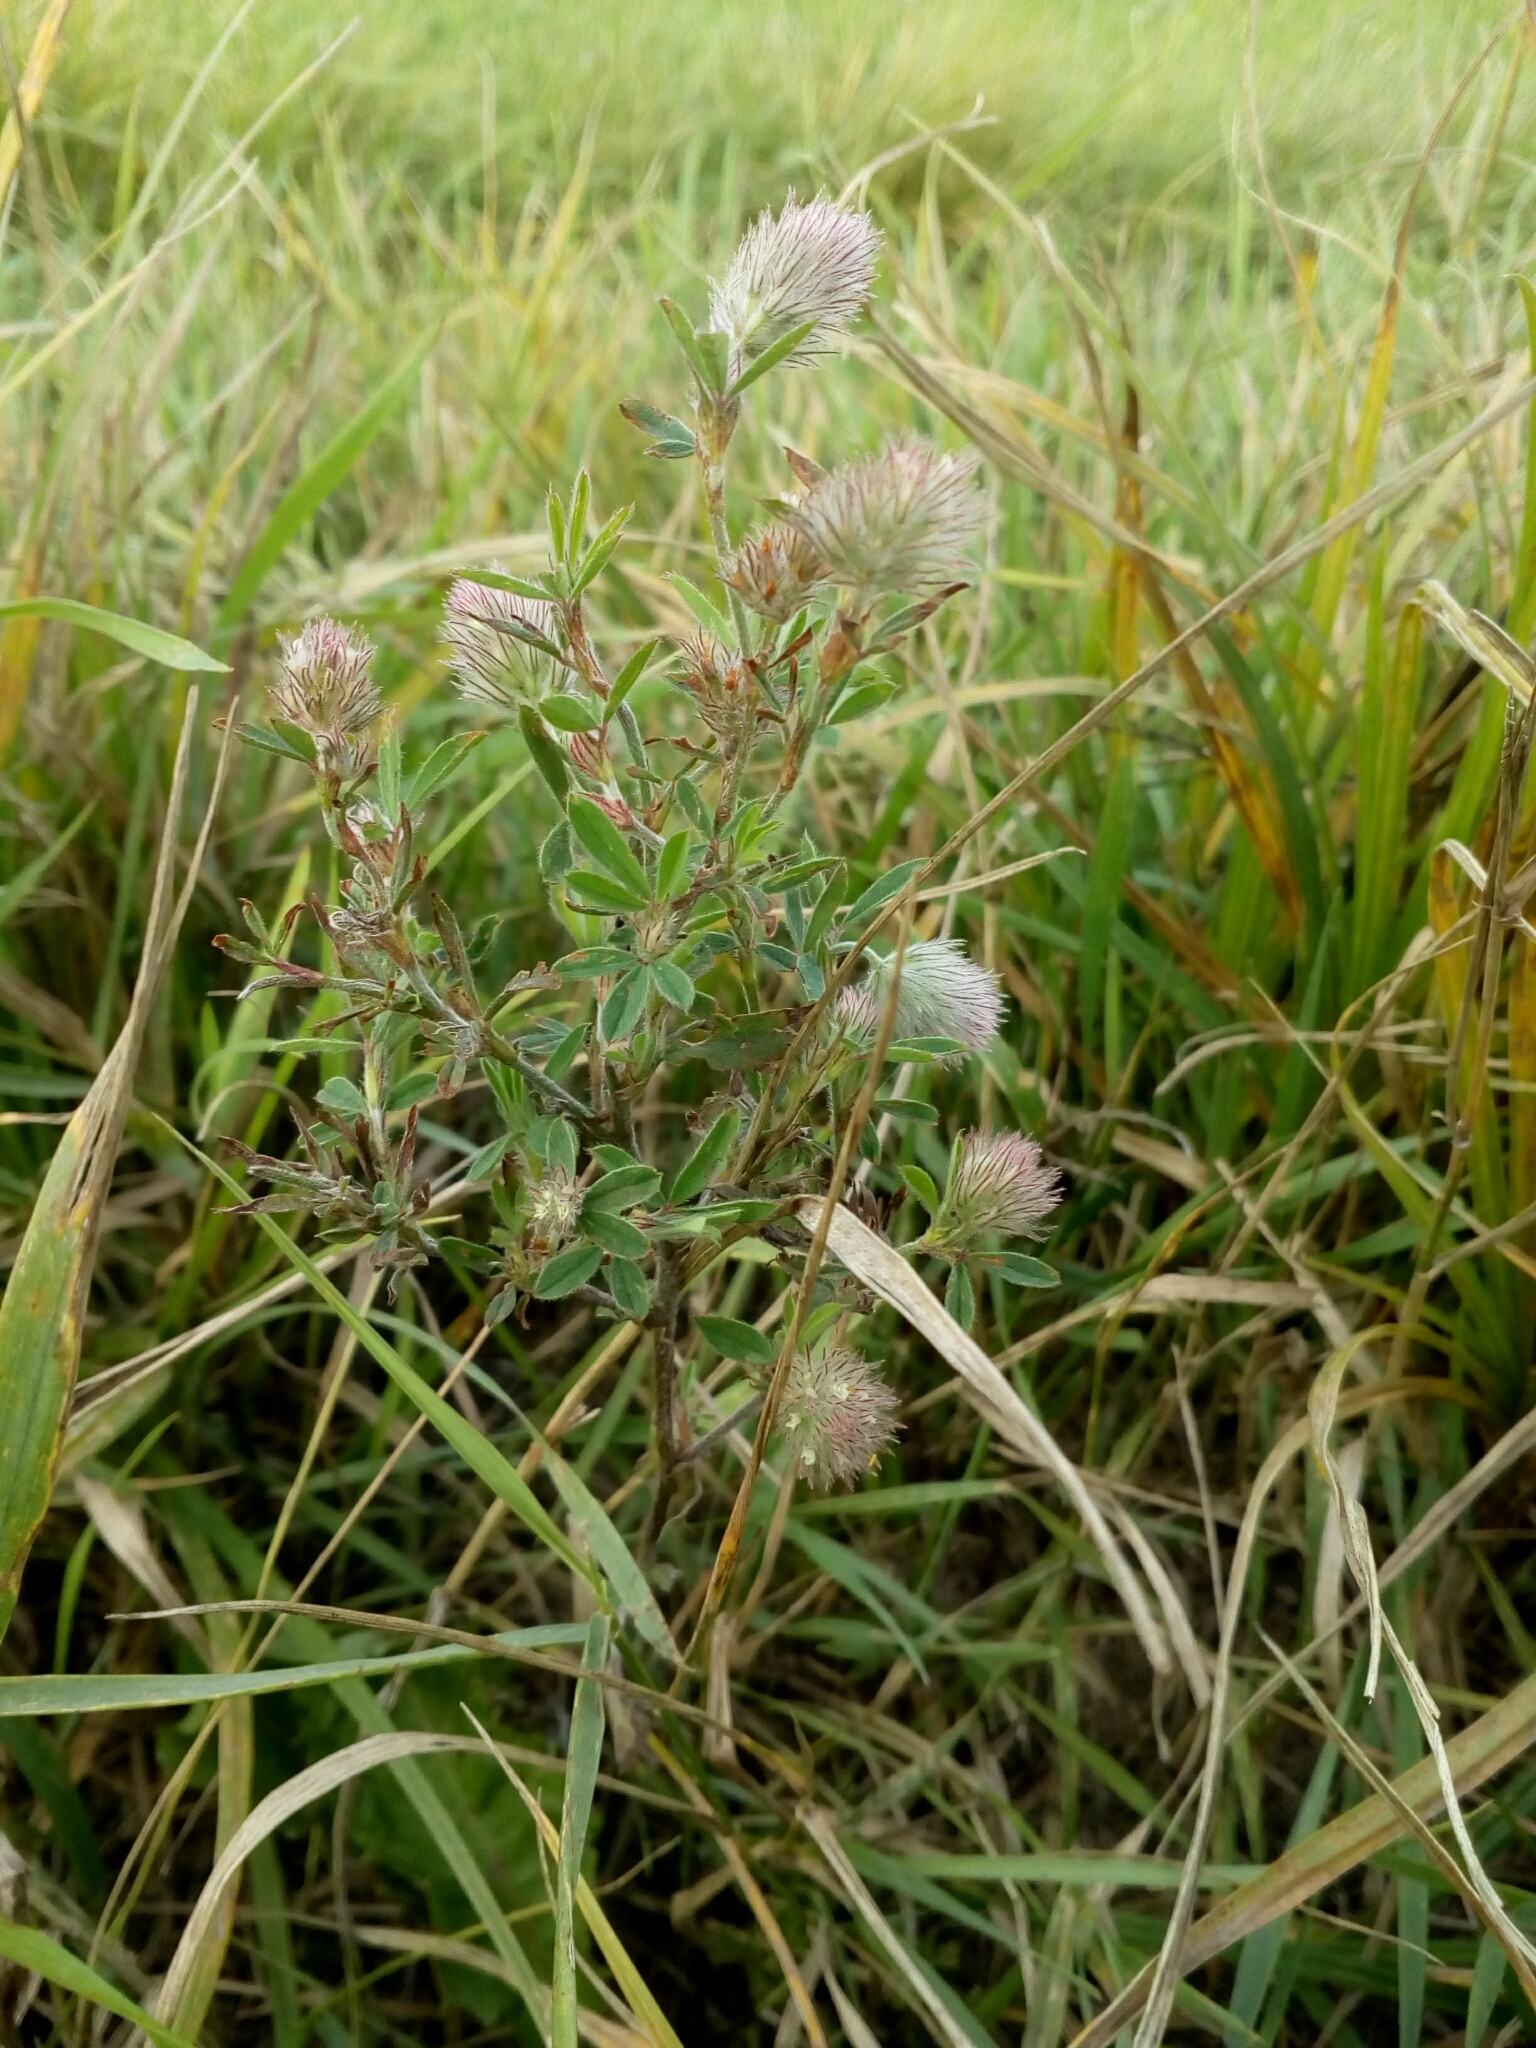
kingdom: Plantae
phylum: Tracheophyta
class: Magnoliopsida
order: Fabales
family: Fabaceae
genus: Trifolium
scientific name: Trifolium arvense
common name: Hare's-foot clover
